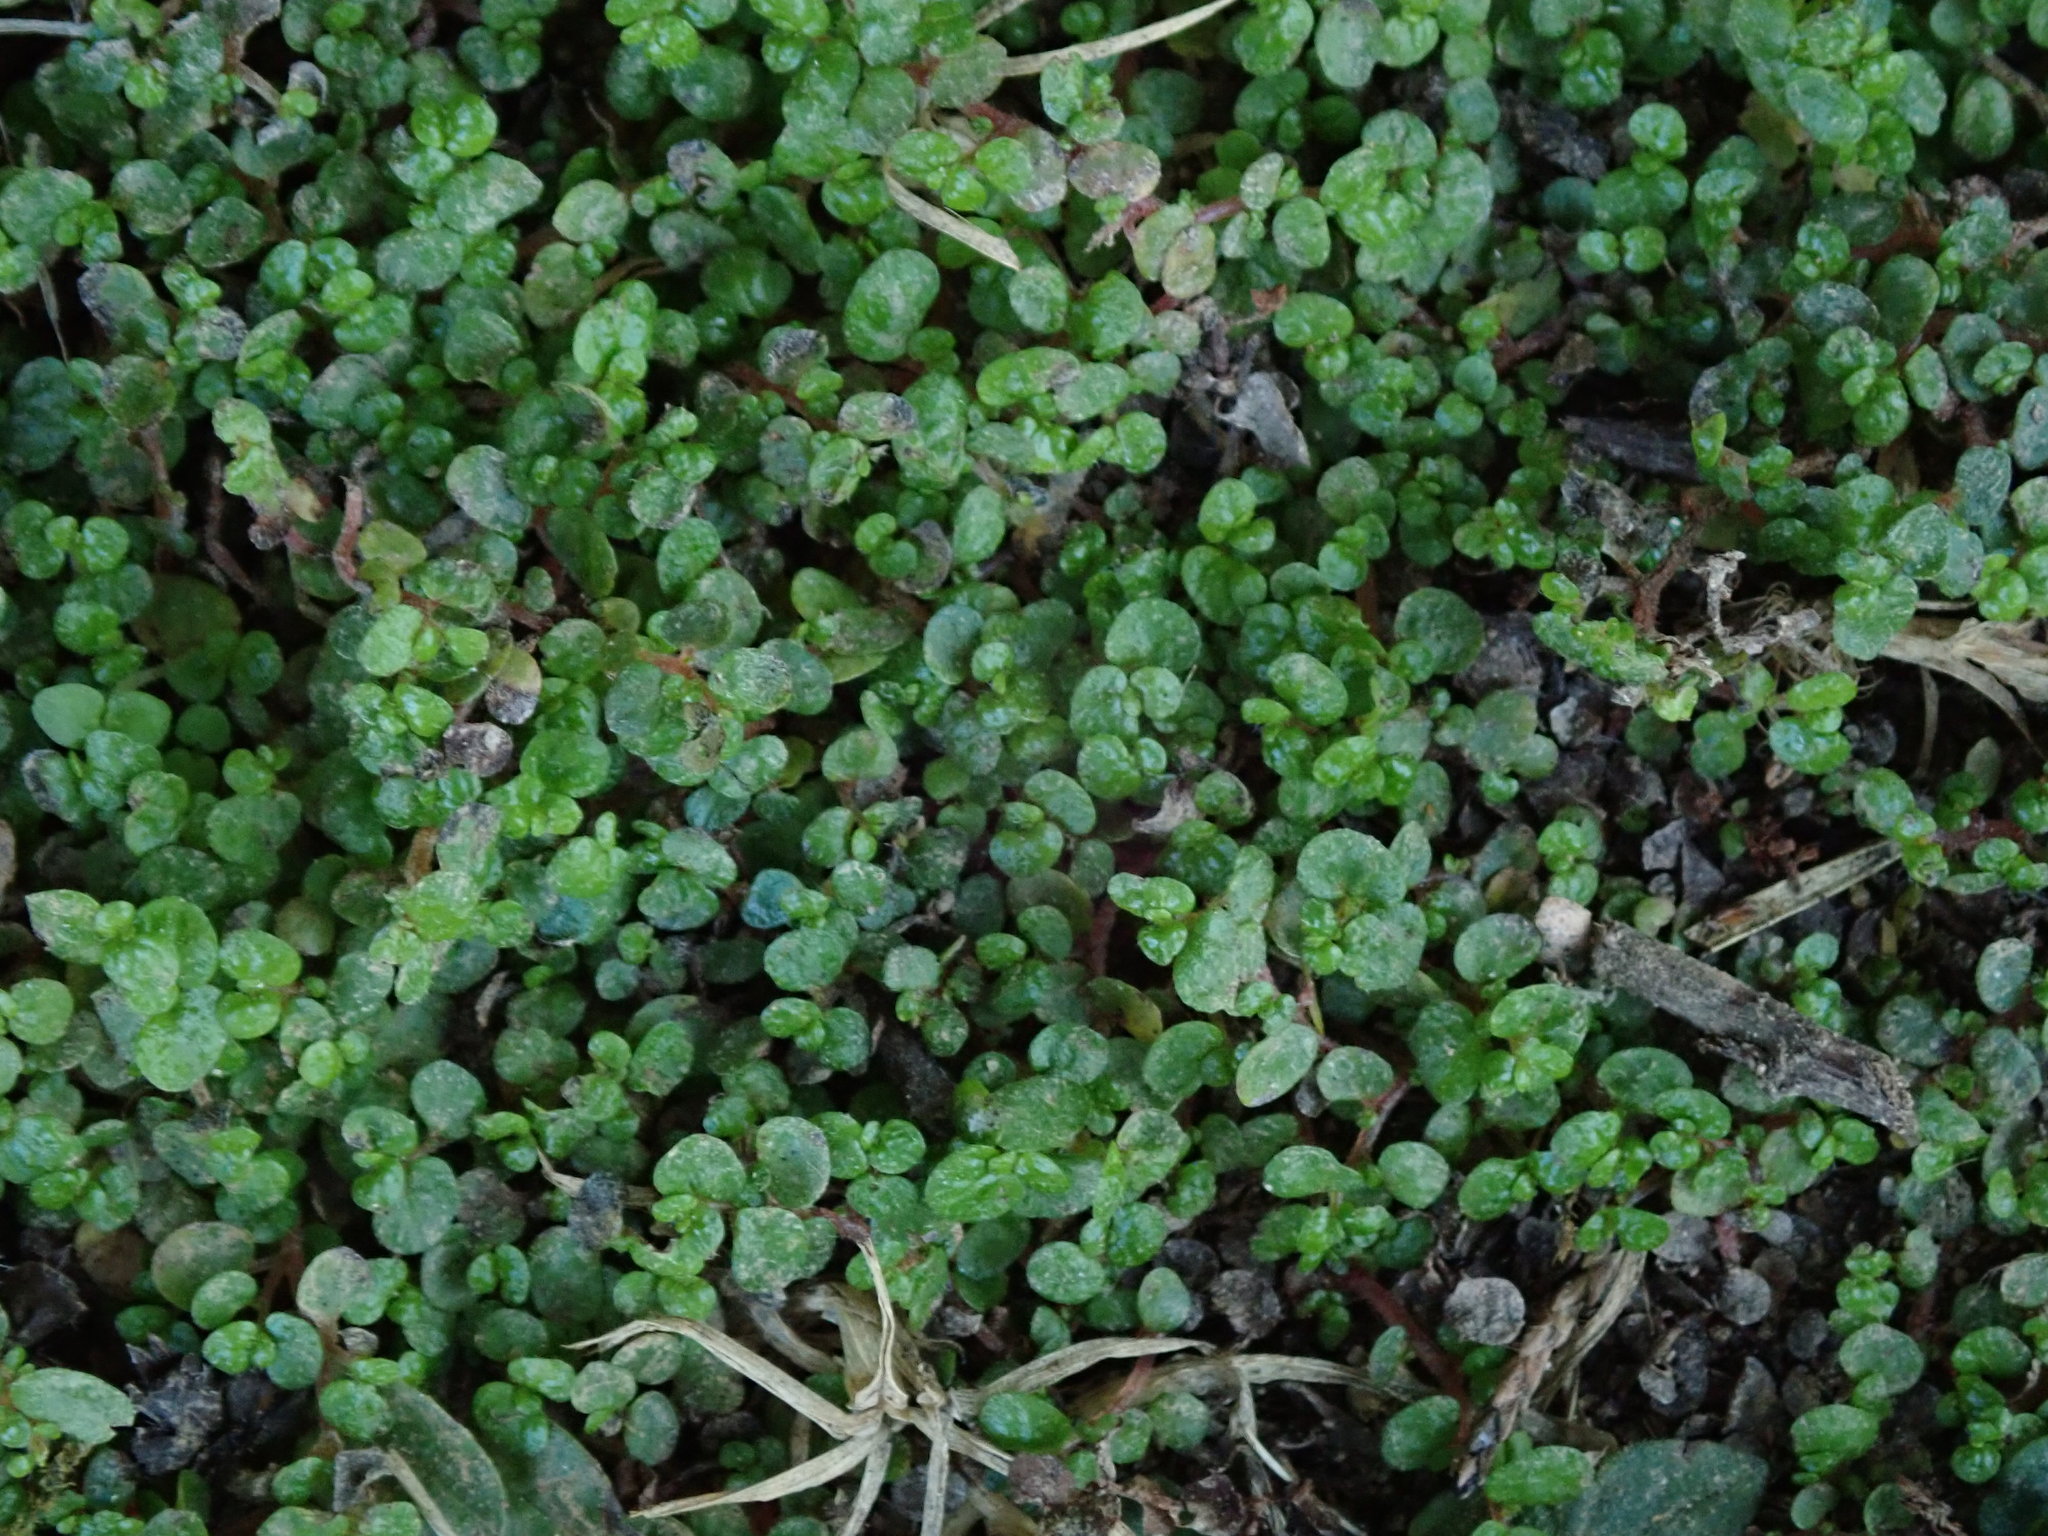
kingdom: Plantae
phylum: Tracheophyta
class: Magnoliopsida
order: Rosales
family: Urticaceae
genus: Soleirolia
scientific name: Soleirolia soleirolii
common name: Mind-your-own-business
